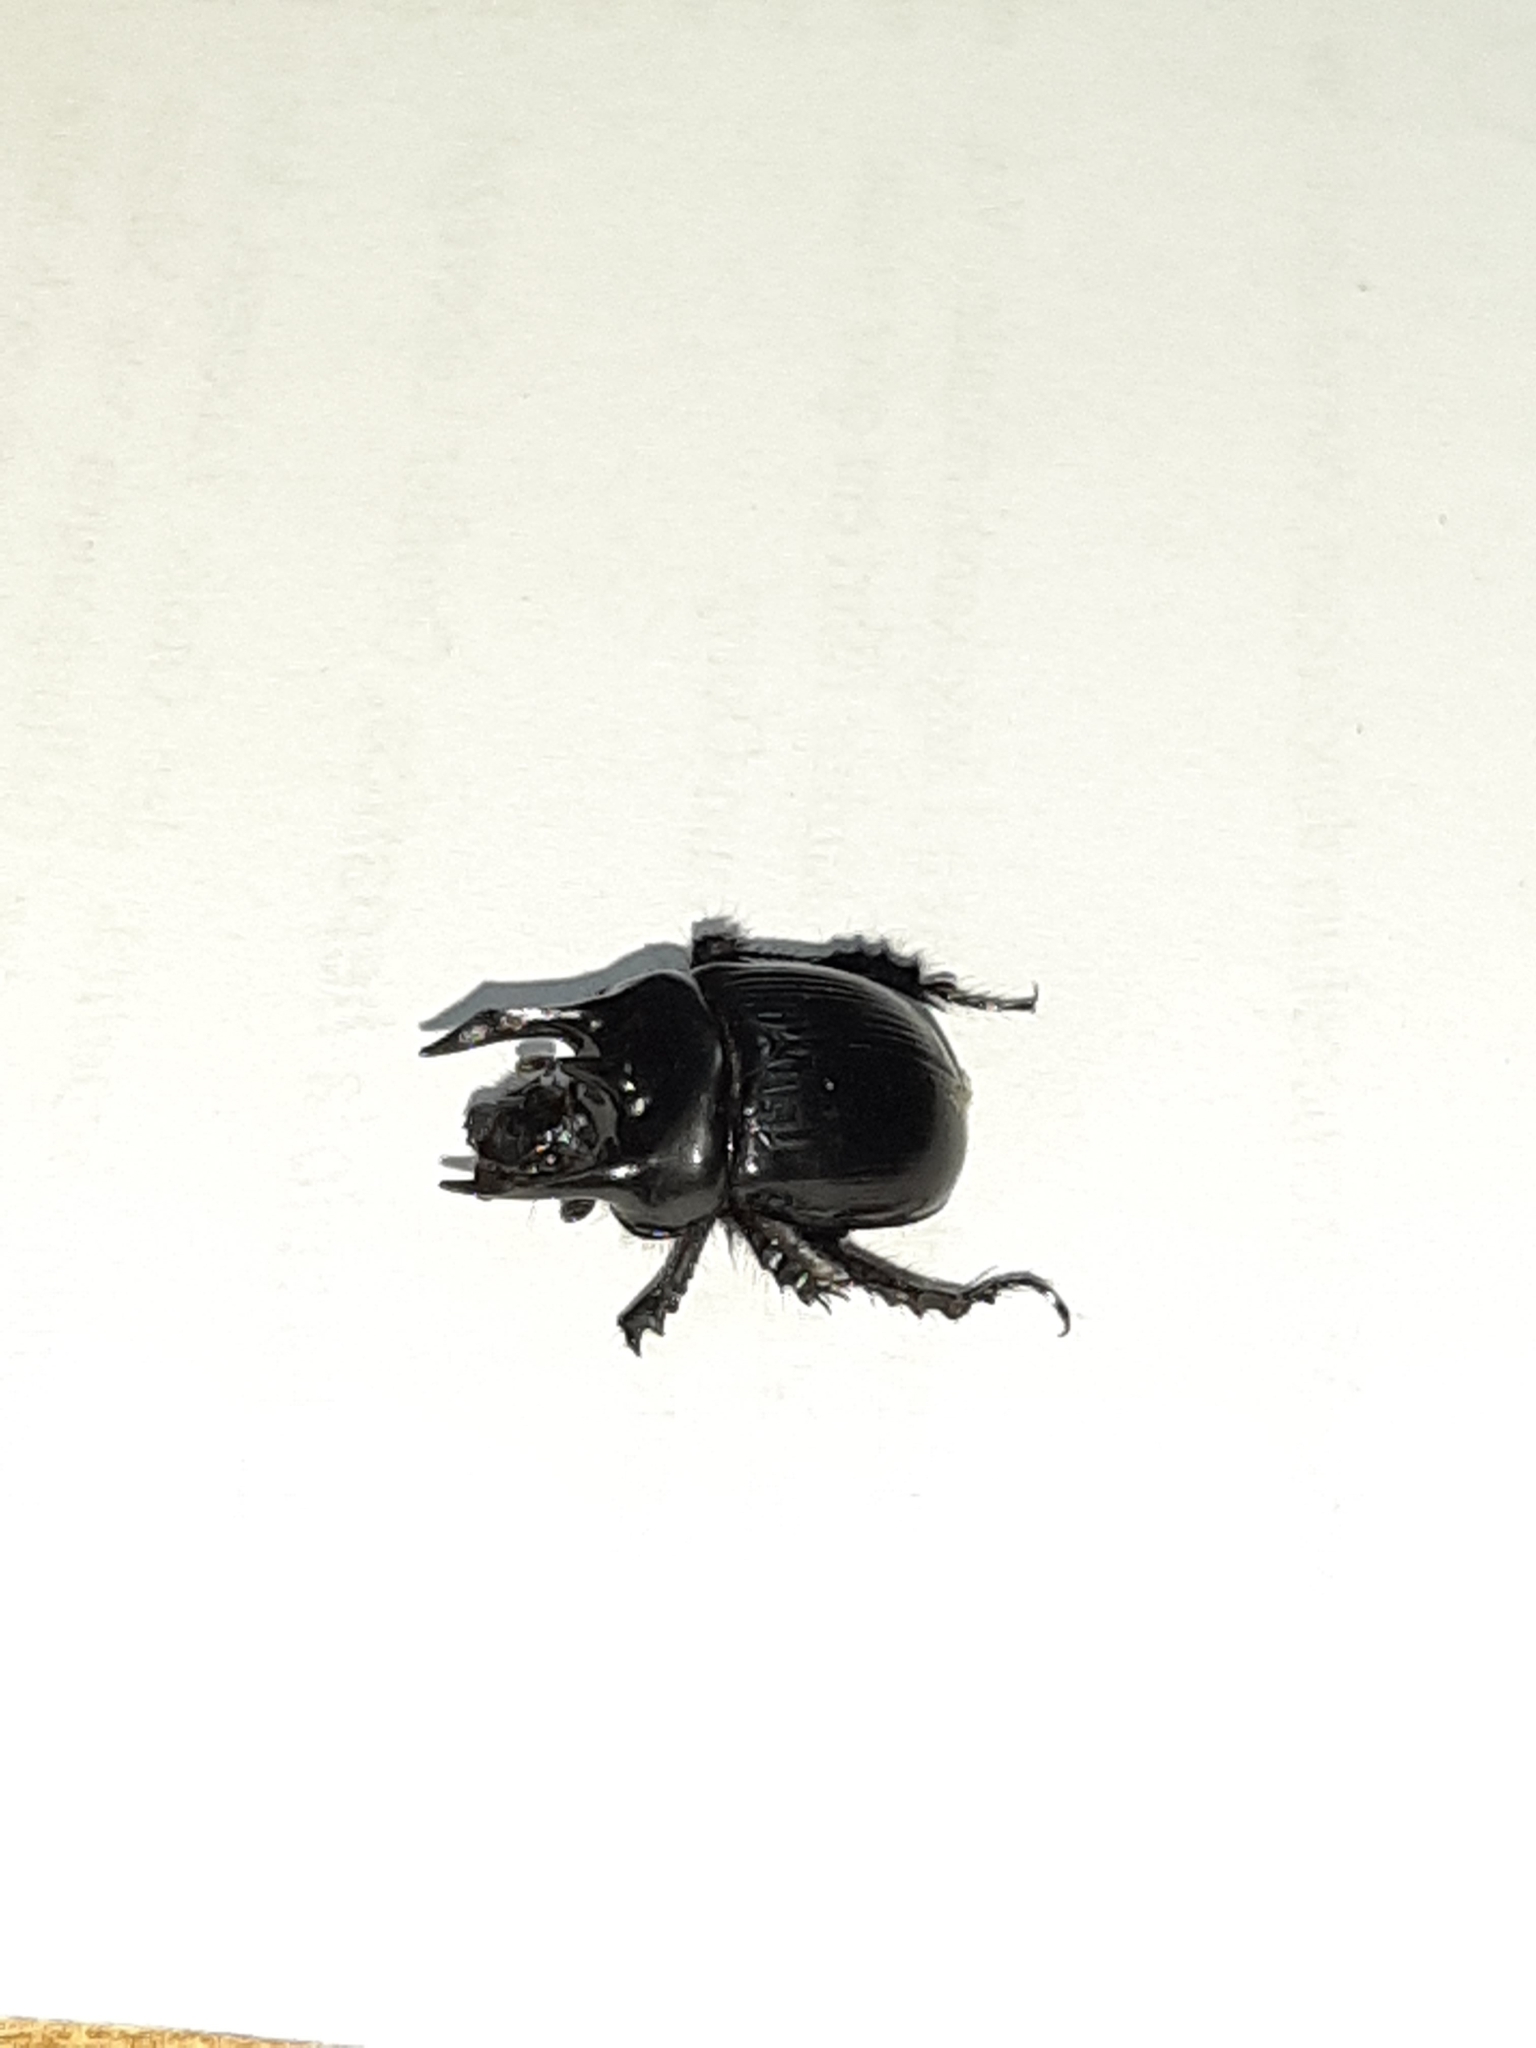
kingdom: Animalia
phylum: Arthropoda
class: Insecta
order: Coleoptera
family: Geotrupidae
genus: Typhaeus
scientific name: Typhaeus typhoeus
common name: Minotaur beetle
